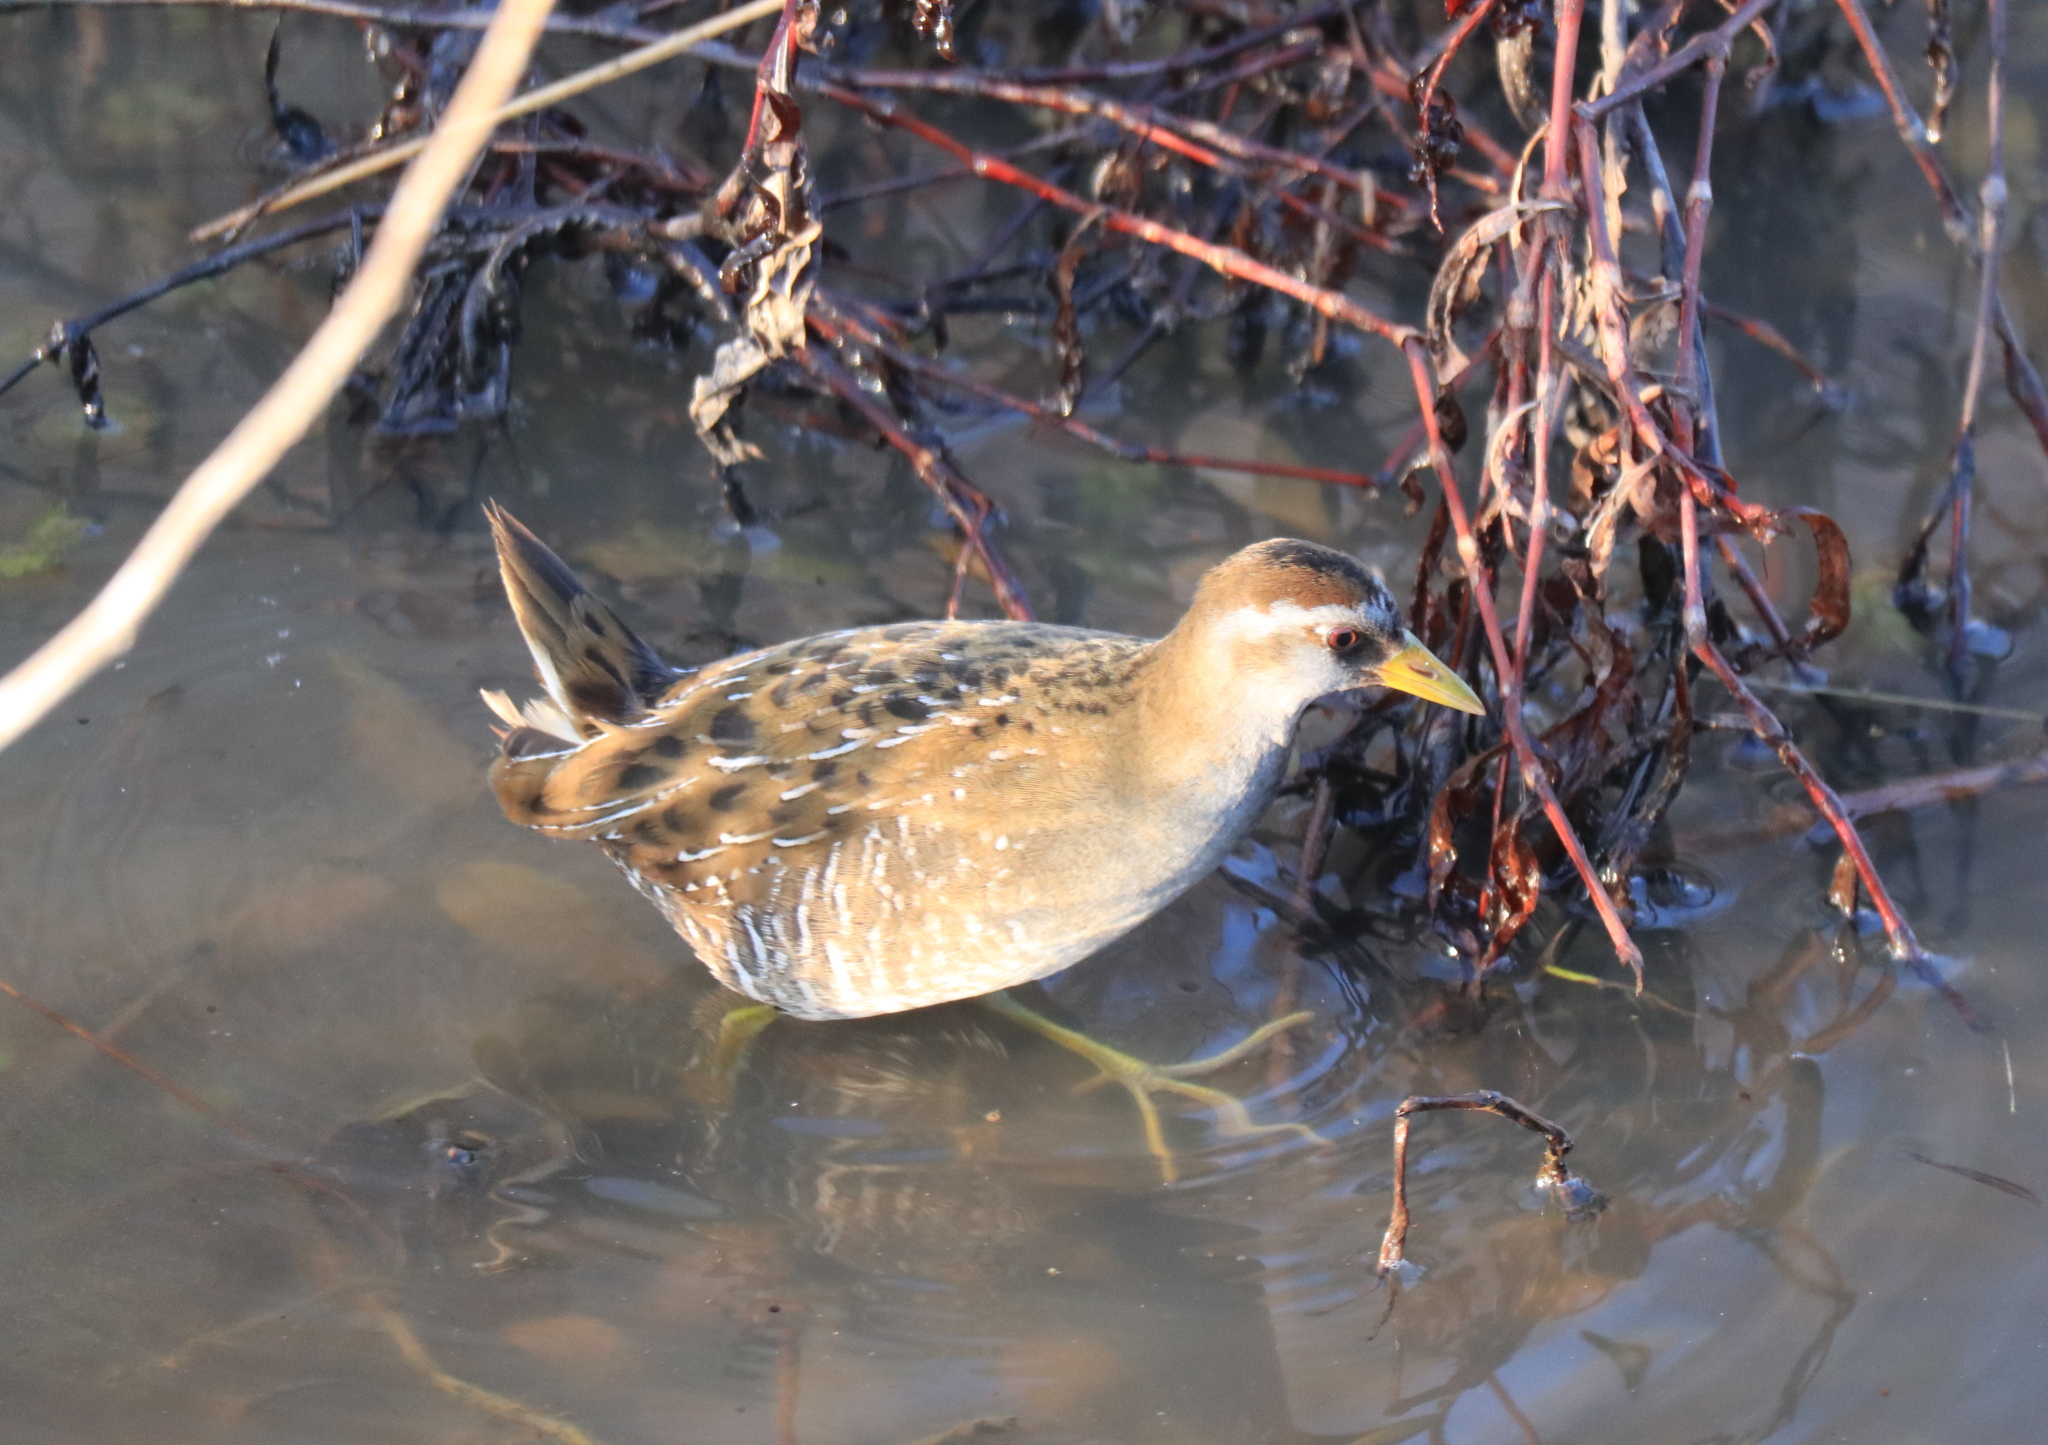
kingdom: Animalia
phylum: Chordata
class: Aves
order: Gruiformes
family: Rallidae
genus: Porzana
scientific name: Porzana carolina
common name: Sora
